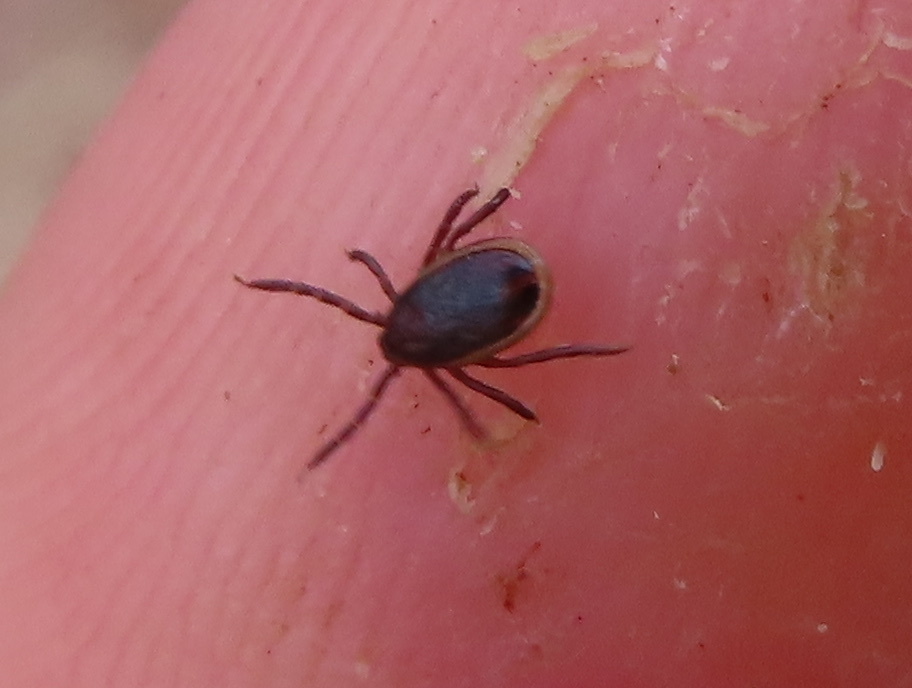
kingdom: Animalia
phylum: Arthropoda
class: Arachnida
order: Ixodida
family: Ixodidae
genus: Ixodes
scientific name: Ixodes scapularis
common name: Black legged tick
